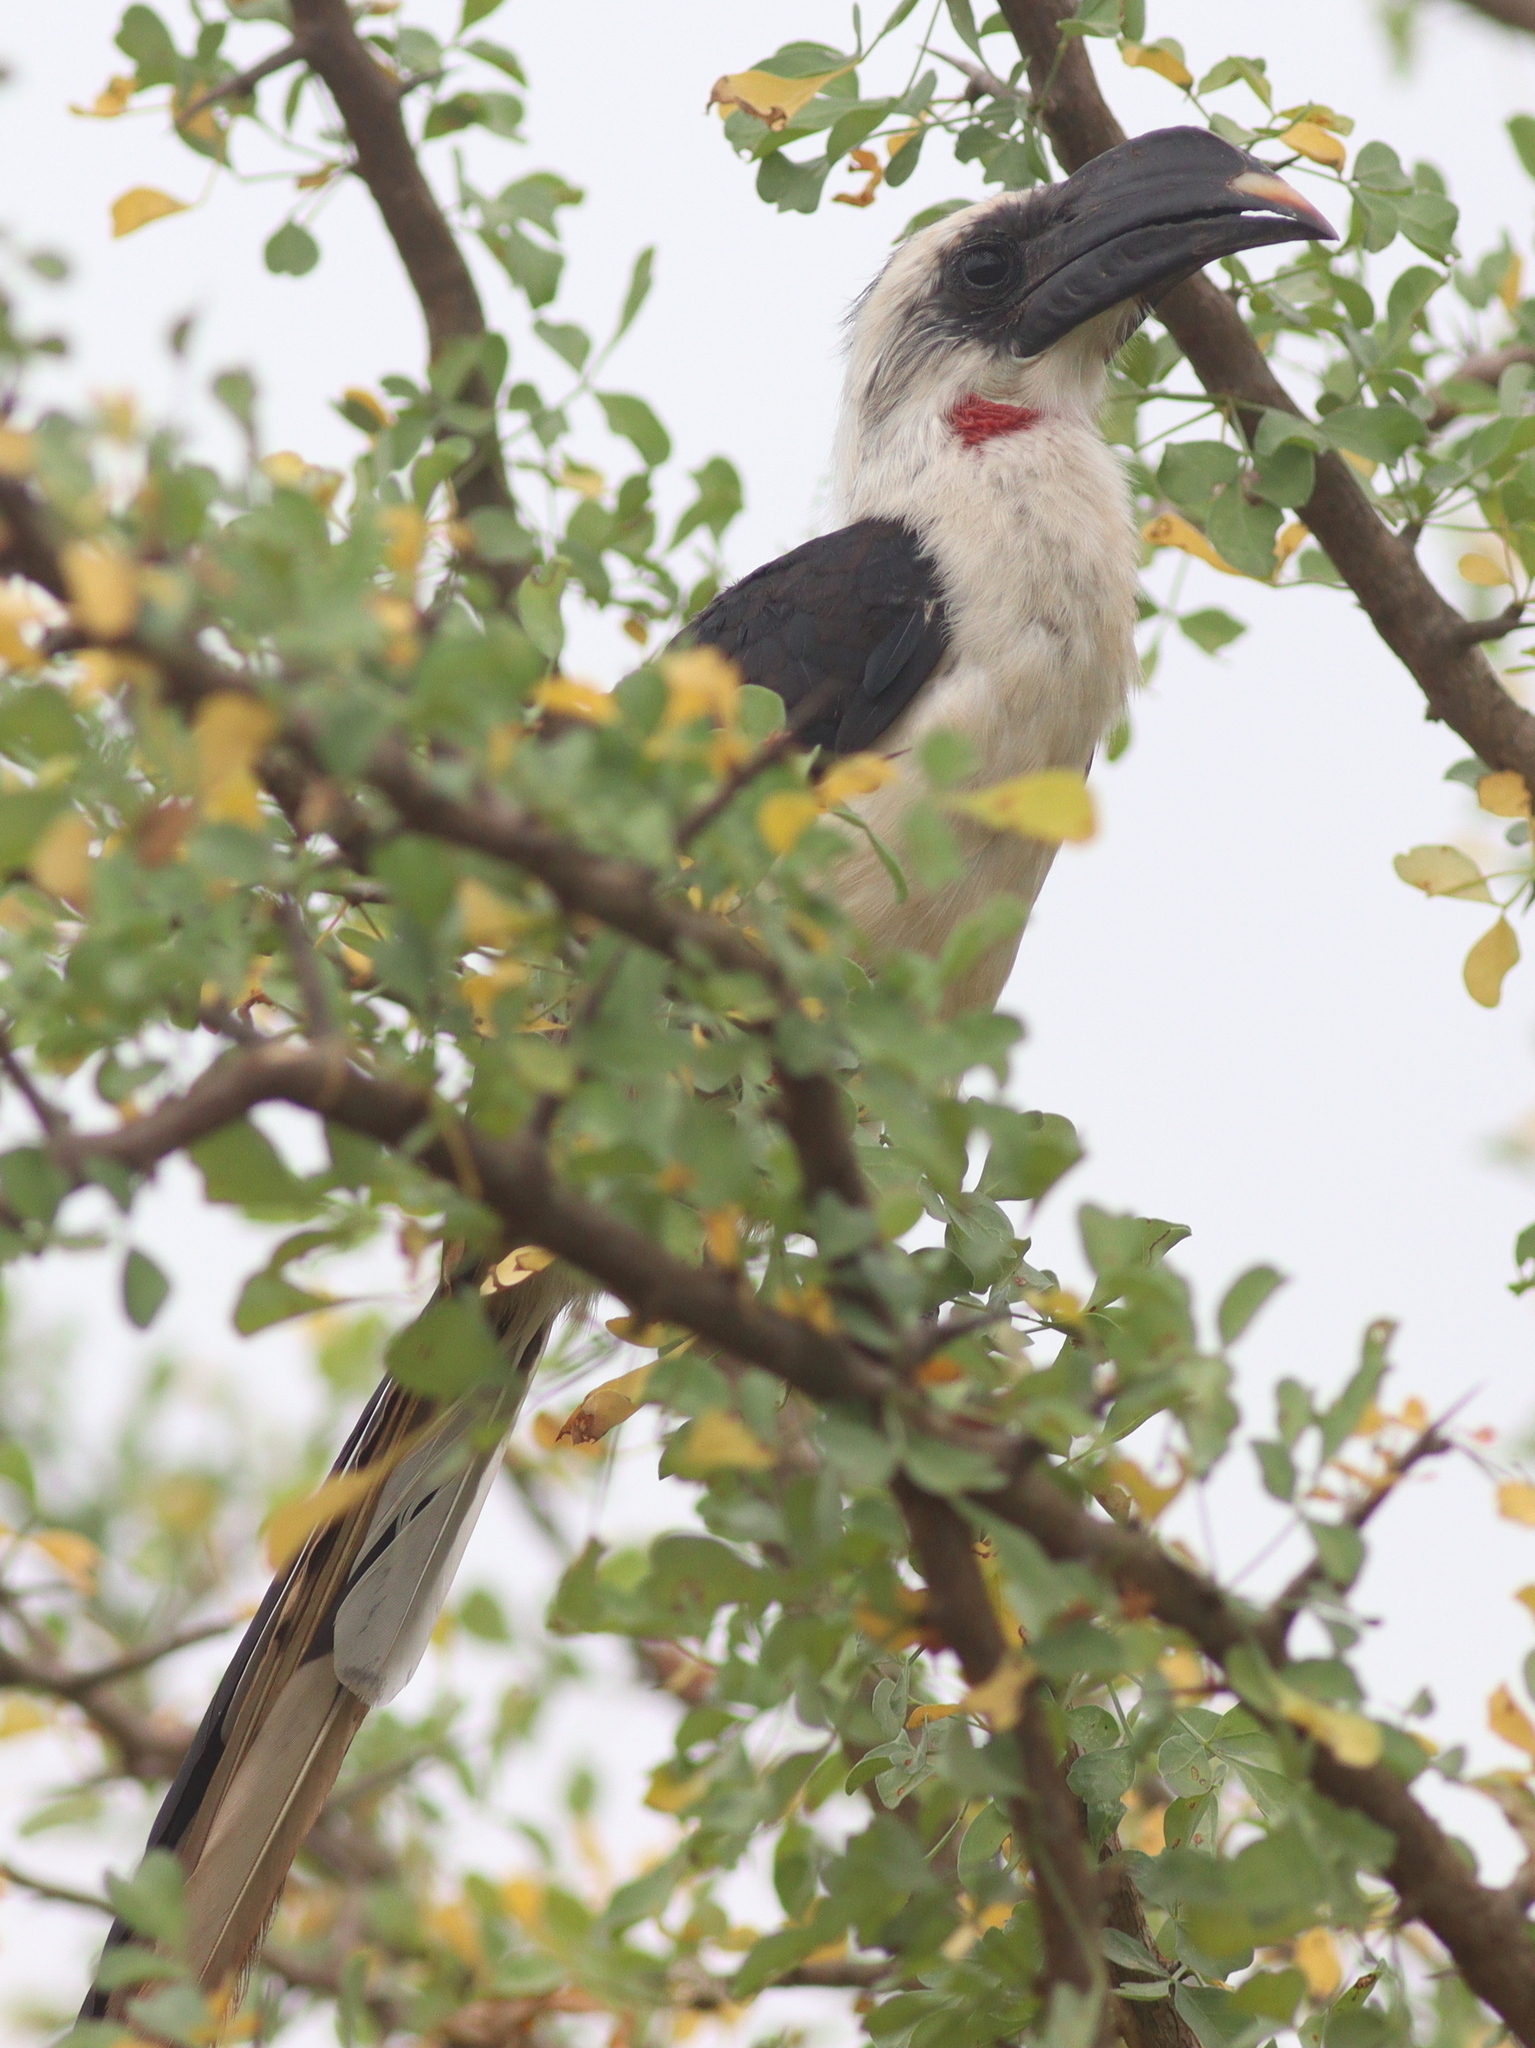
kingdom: Animalia
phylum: Chordata
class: Aves
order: Bucerotiformes
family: Bucerotidae
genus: Tockus
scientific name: Tockus deckeni
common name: Von der decken's hornbill
